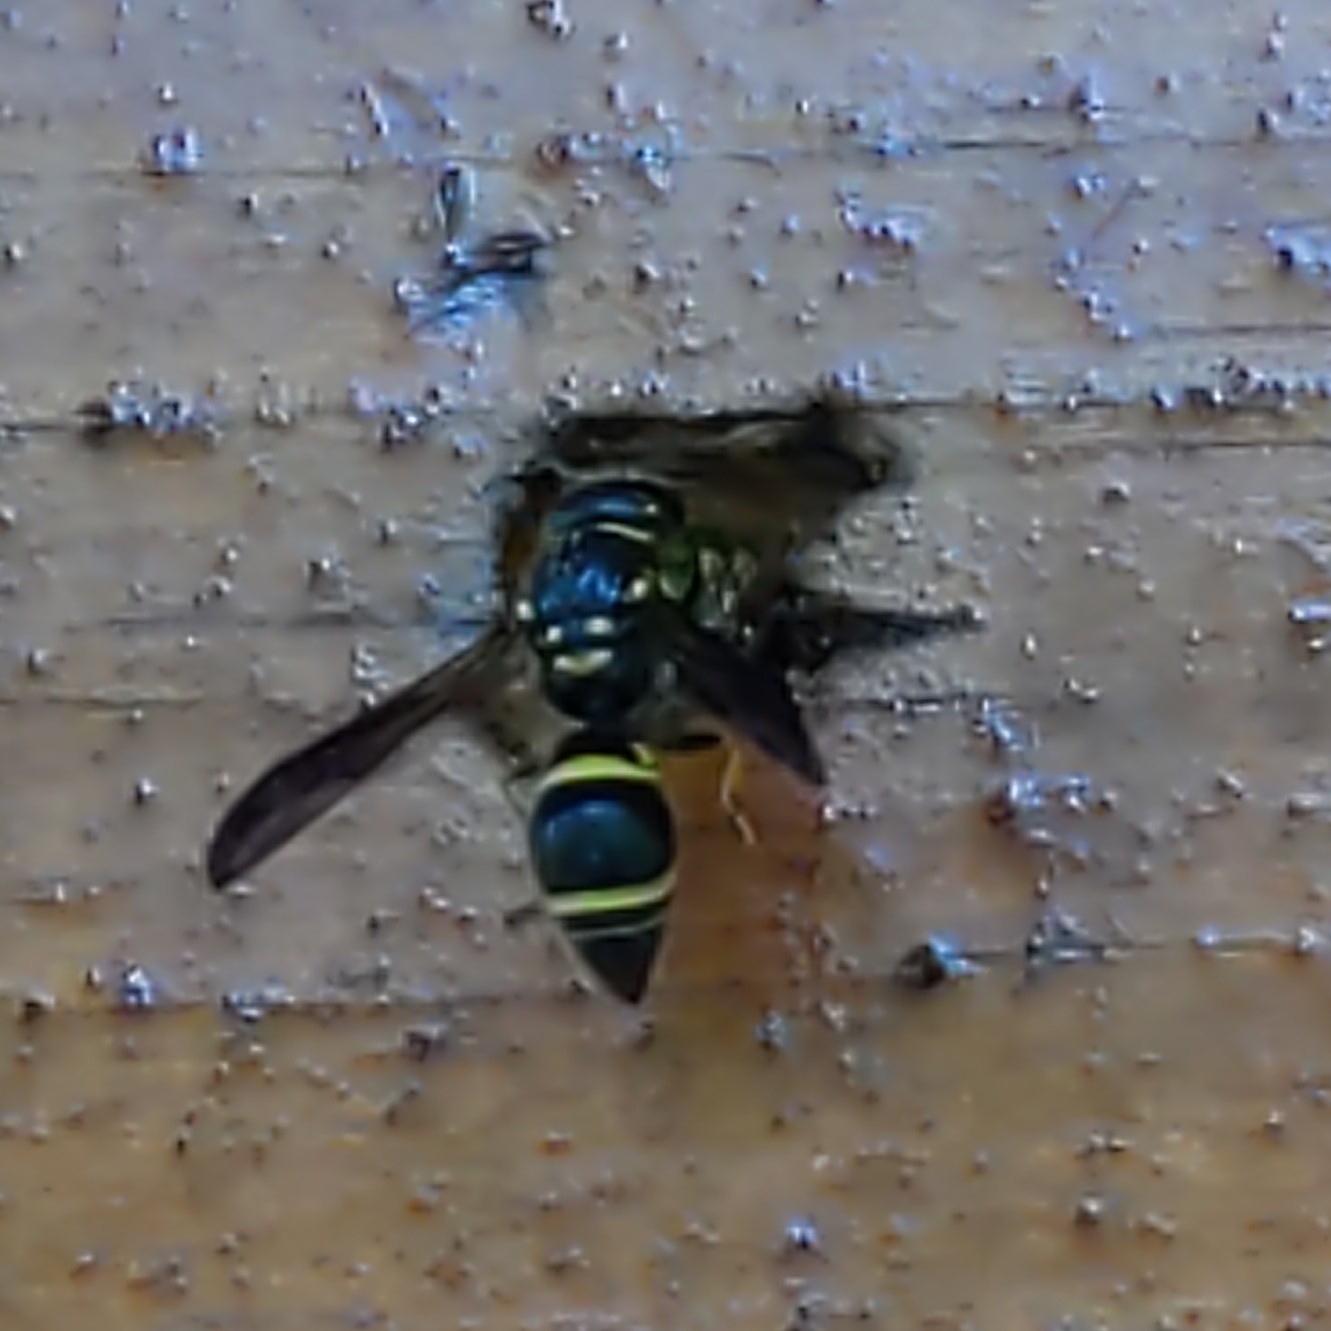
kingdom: Animalia
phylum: Arthropoda
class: Insecta
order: Hymenoptera
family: Vespidae
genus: Ancistrocerus
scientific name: Ancistrocerus campestris
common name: Smiling mason wasp
